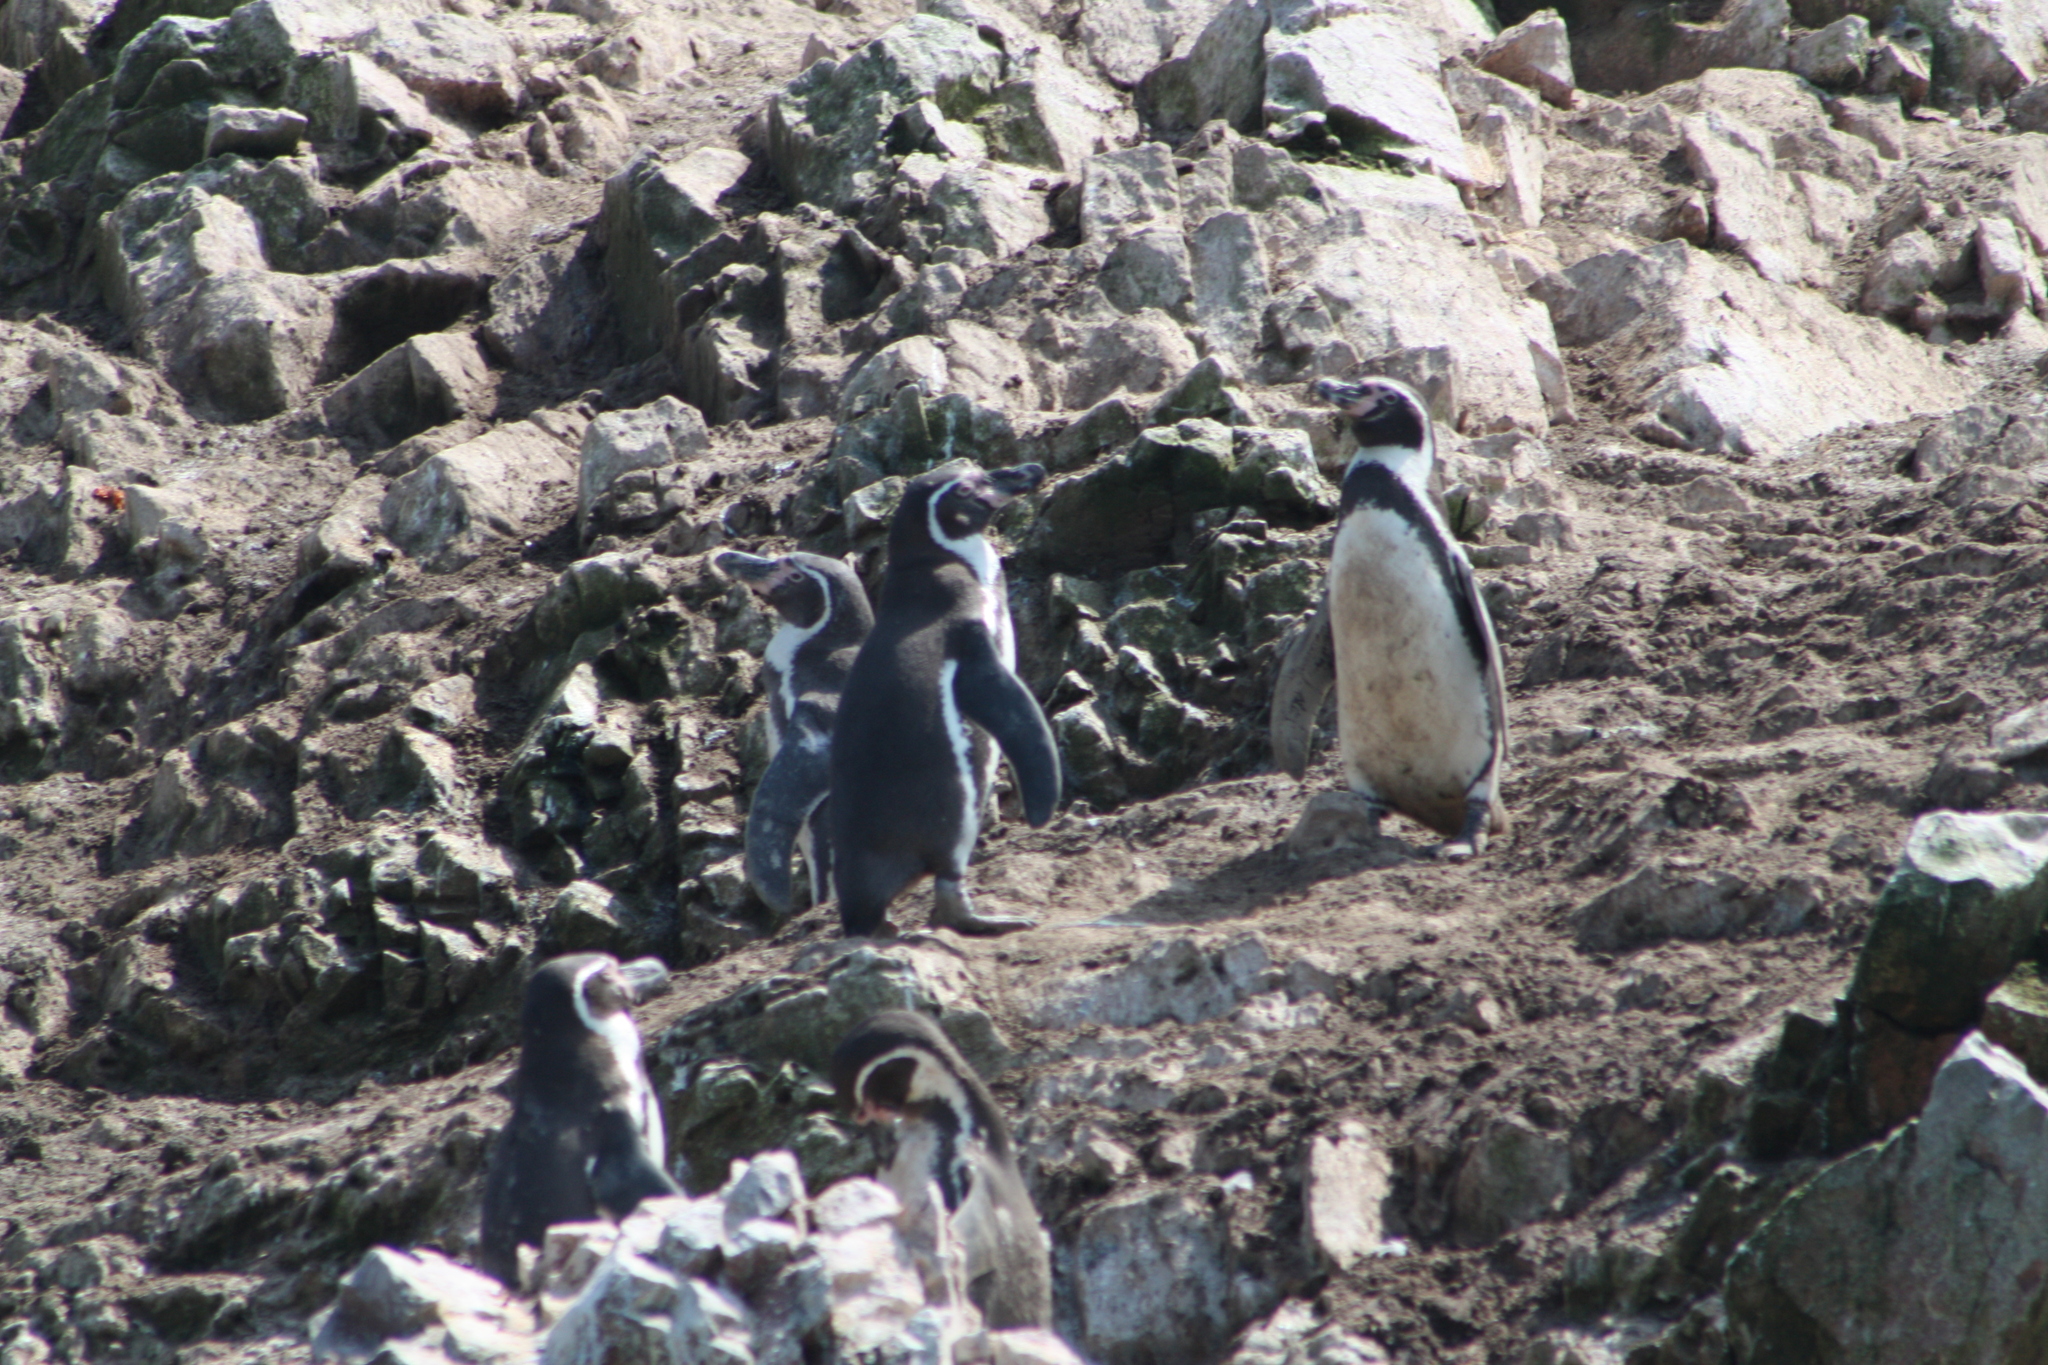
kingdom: Animalia
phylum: Chordata
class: Aves
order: Sphenisciformes
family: Spheniscidae
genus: Spheniscus
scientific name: Spheniscus humboldti
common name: Humboldt penguin
